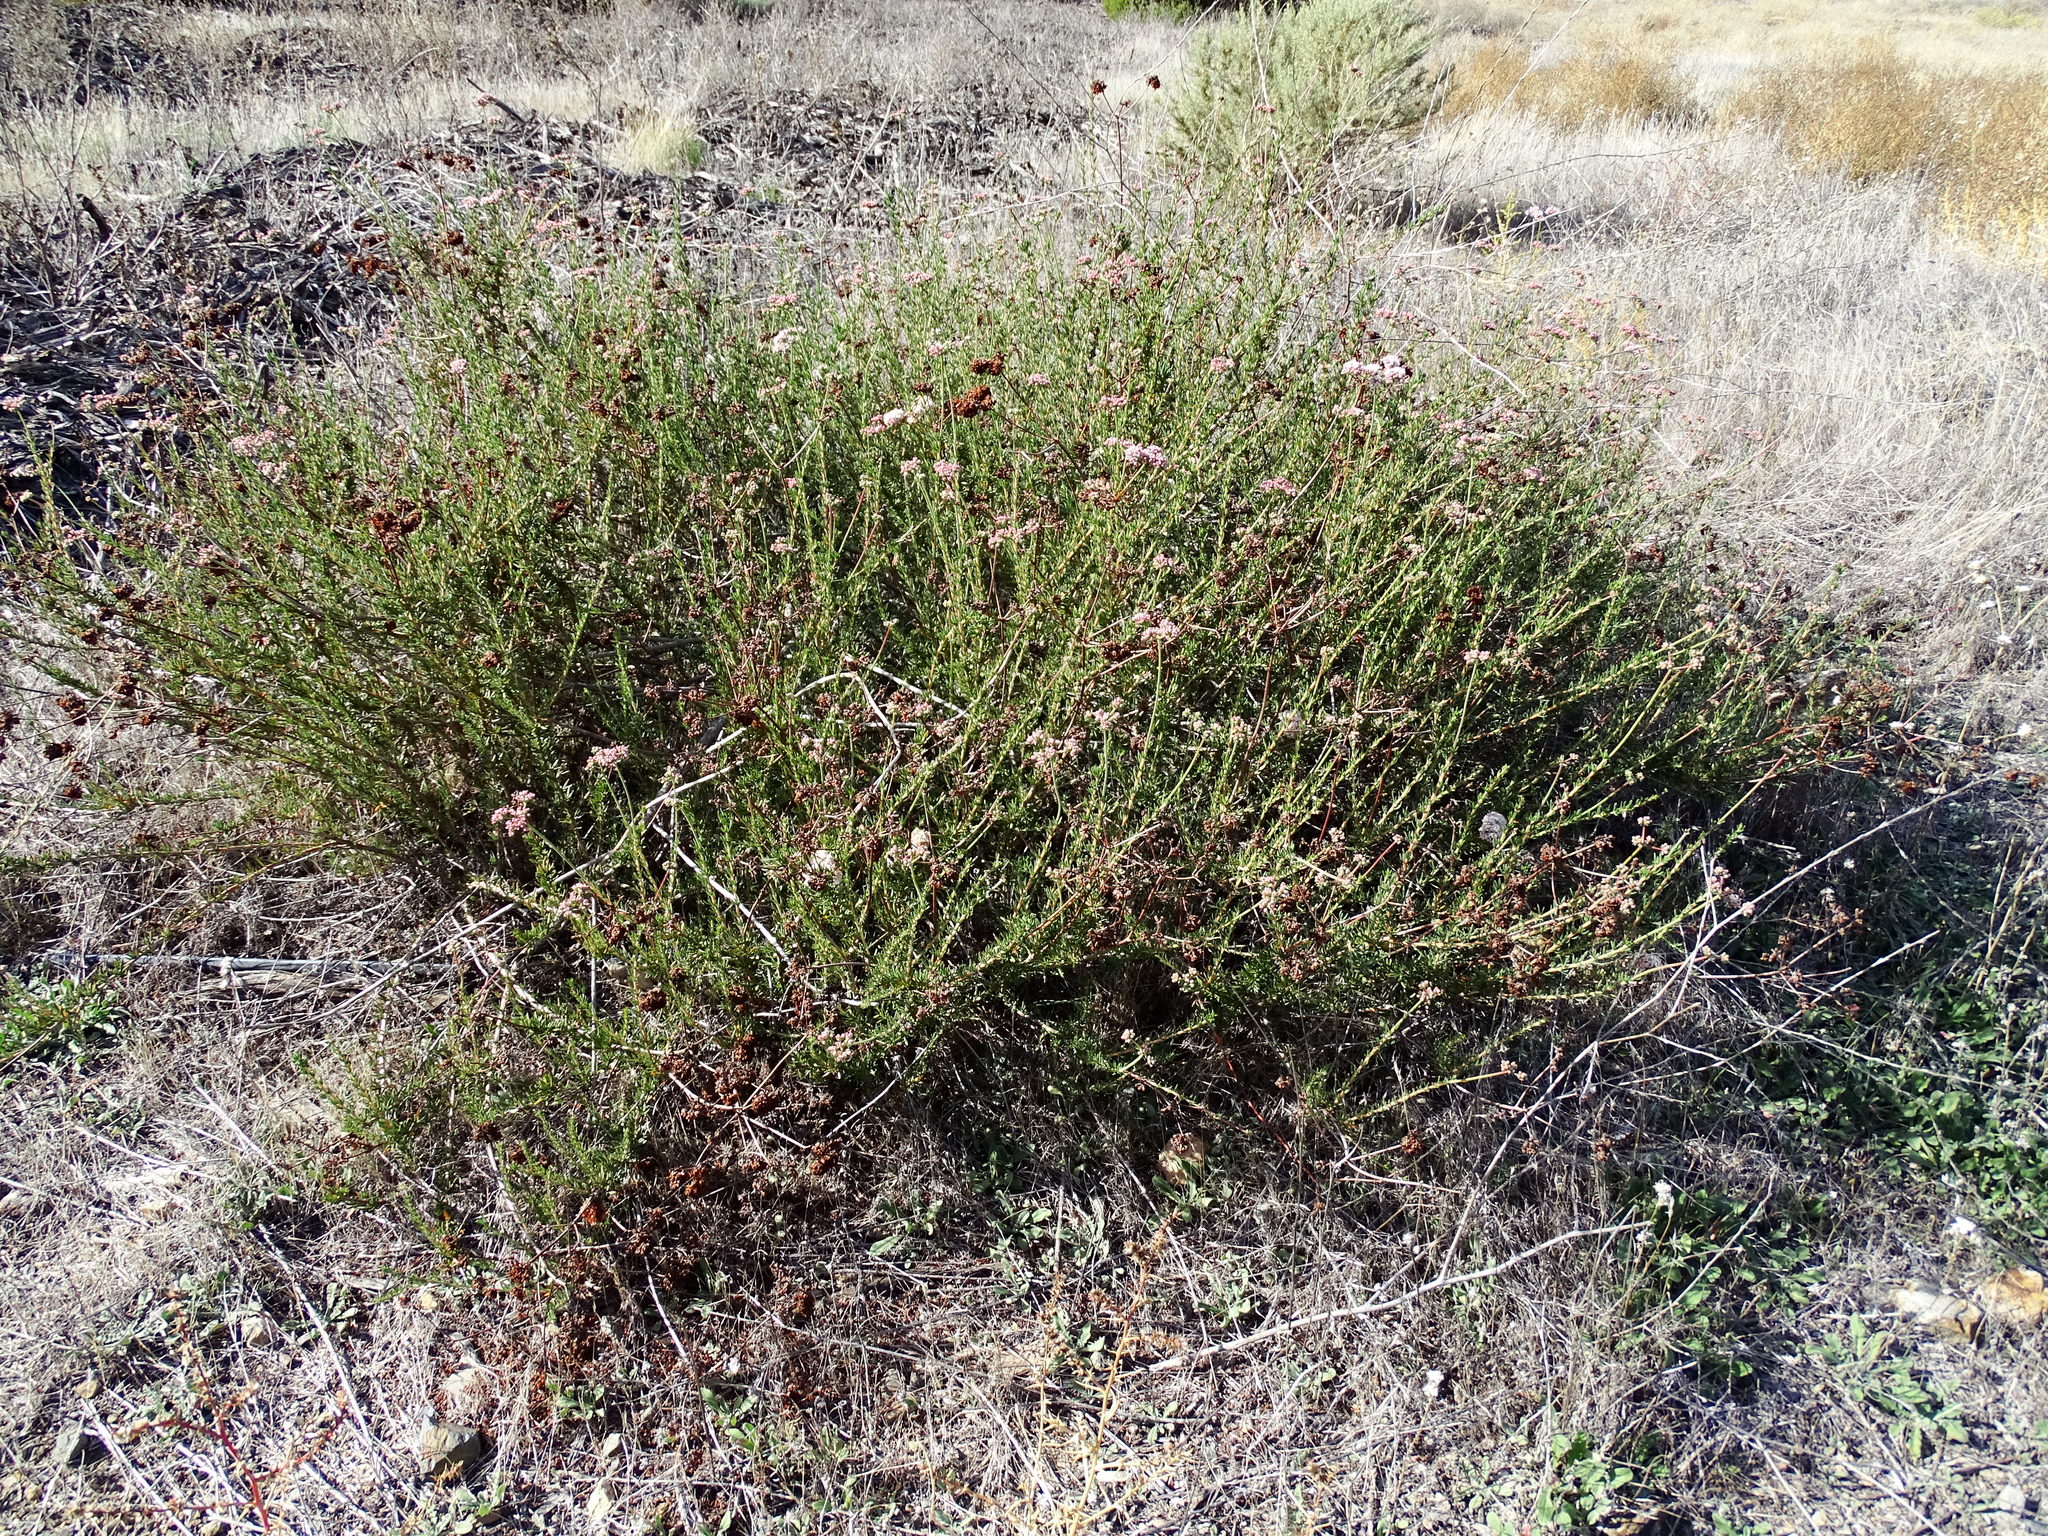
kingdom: Plantae
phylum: Tracheophyta
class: Magnoliopsida
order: Caryophyllales
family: Polygonaceae
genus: Eriogonum
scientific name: Eriogonum fasciculatum
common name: California wild buckwheat
